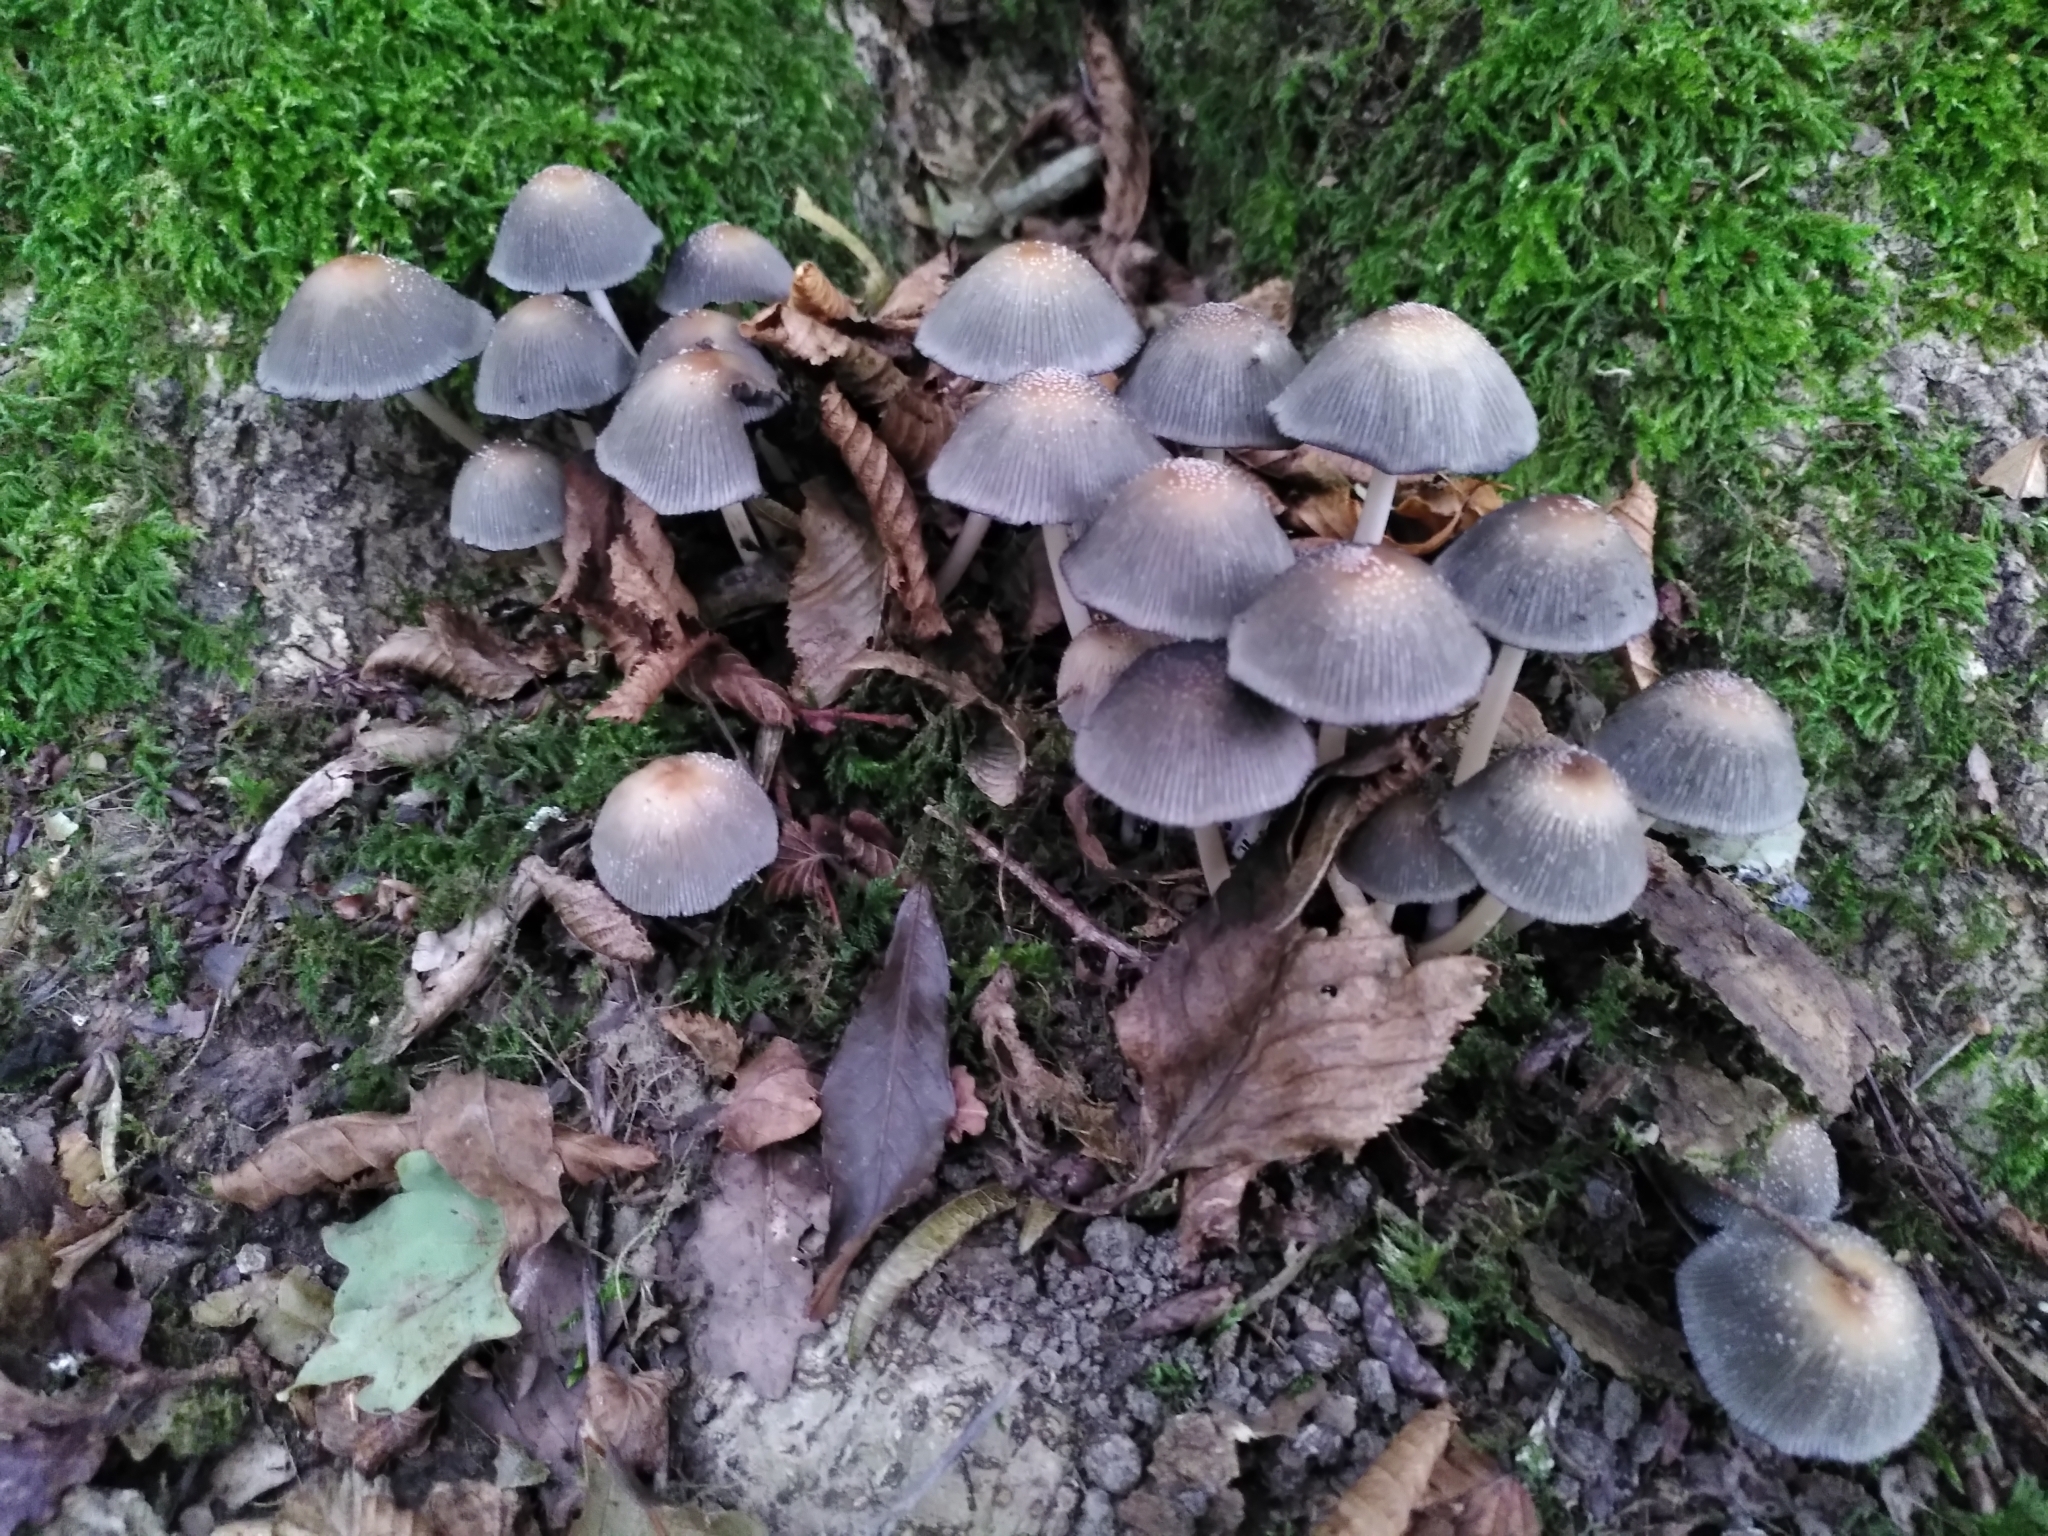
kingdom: Fungi
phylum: Basidiomycota
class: Agaricomycetes
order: Agaricales
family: Psathyrellaceae
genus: Coprinellus
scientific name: Coprinellus micaceus
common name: Glistening ink-cap
